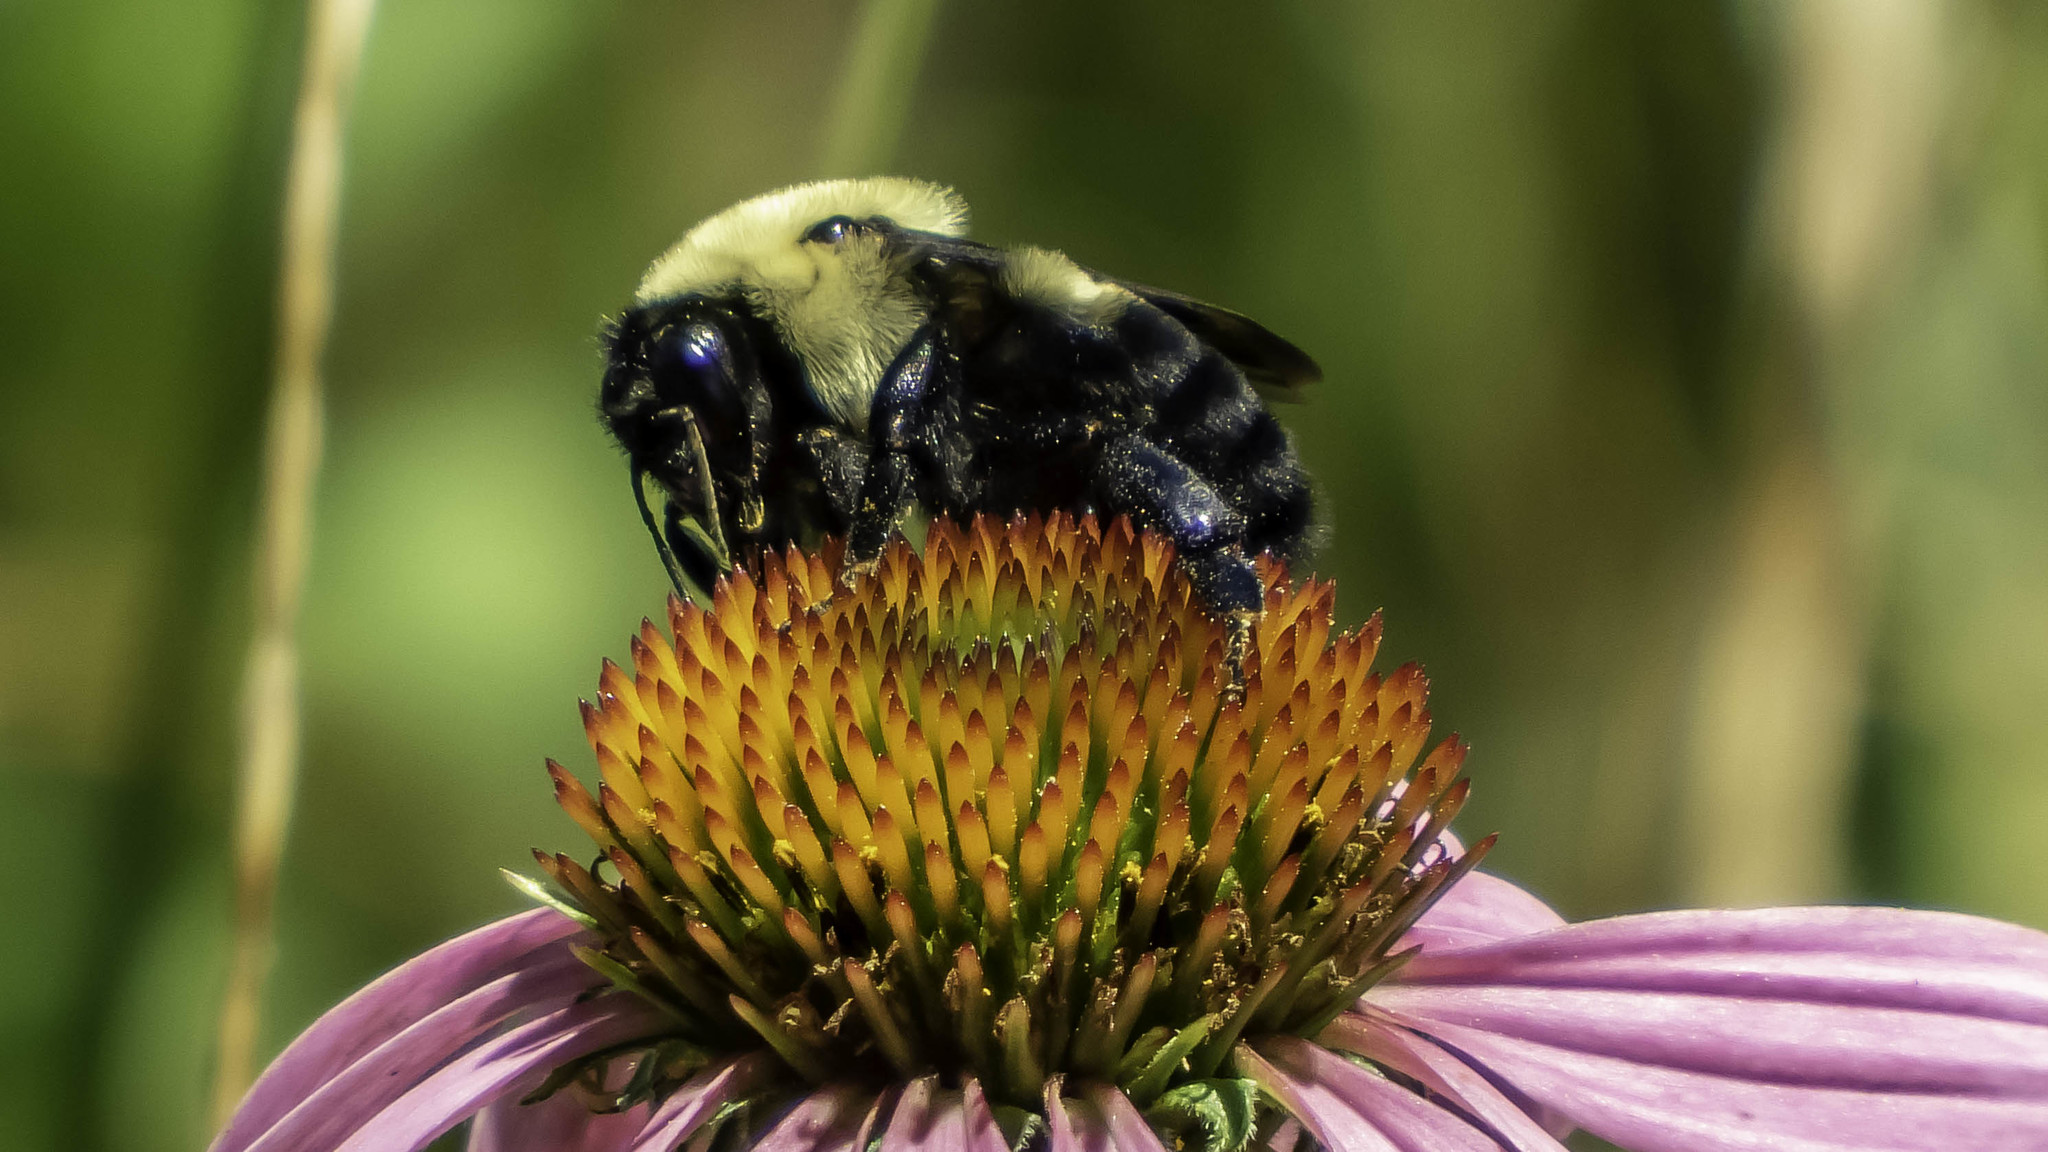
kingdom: Animalia
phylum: Arthropoda
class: Insecta
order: Hymenoptera
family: Apidae
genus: Bombus
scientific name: Bombus griseocollis
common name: Brown-belted bumble bee
